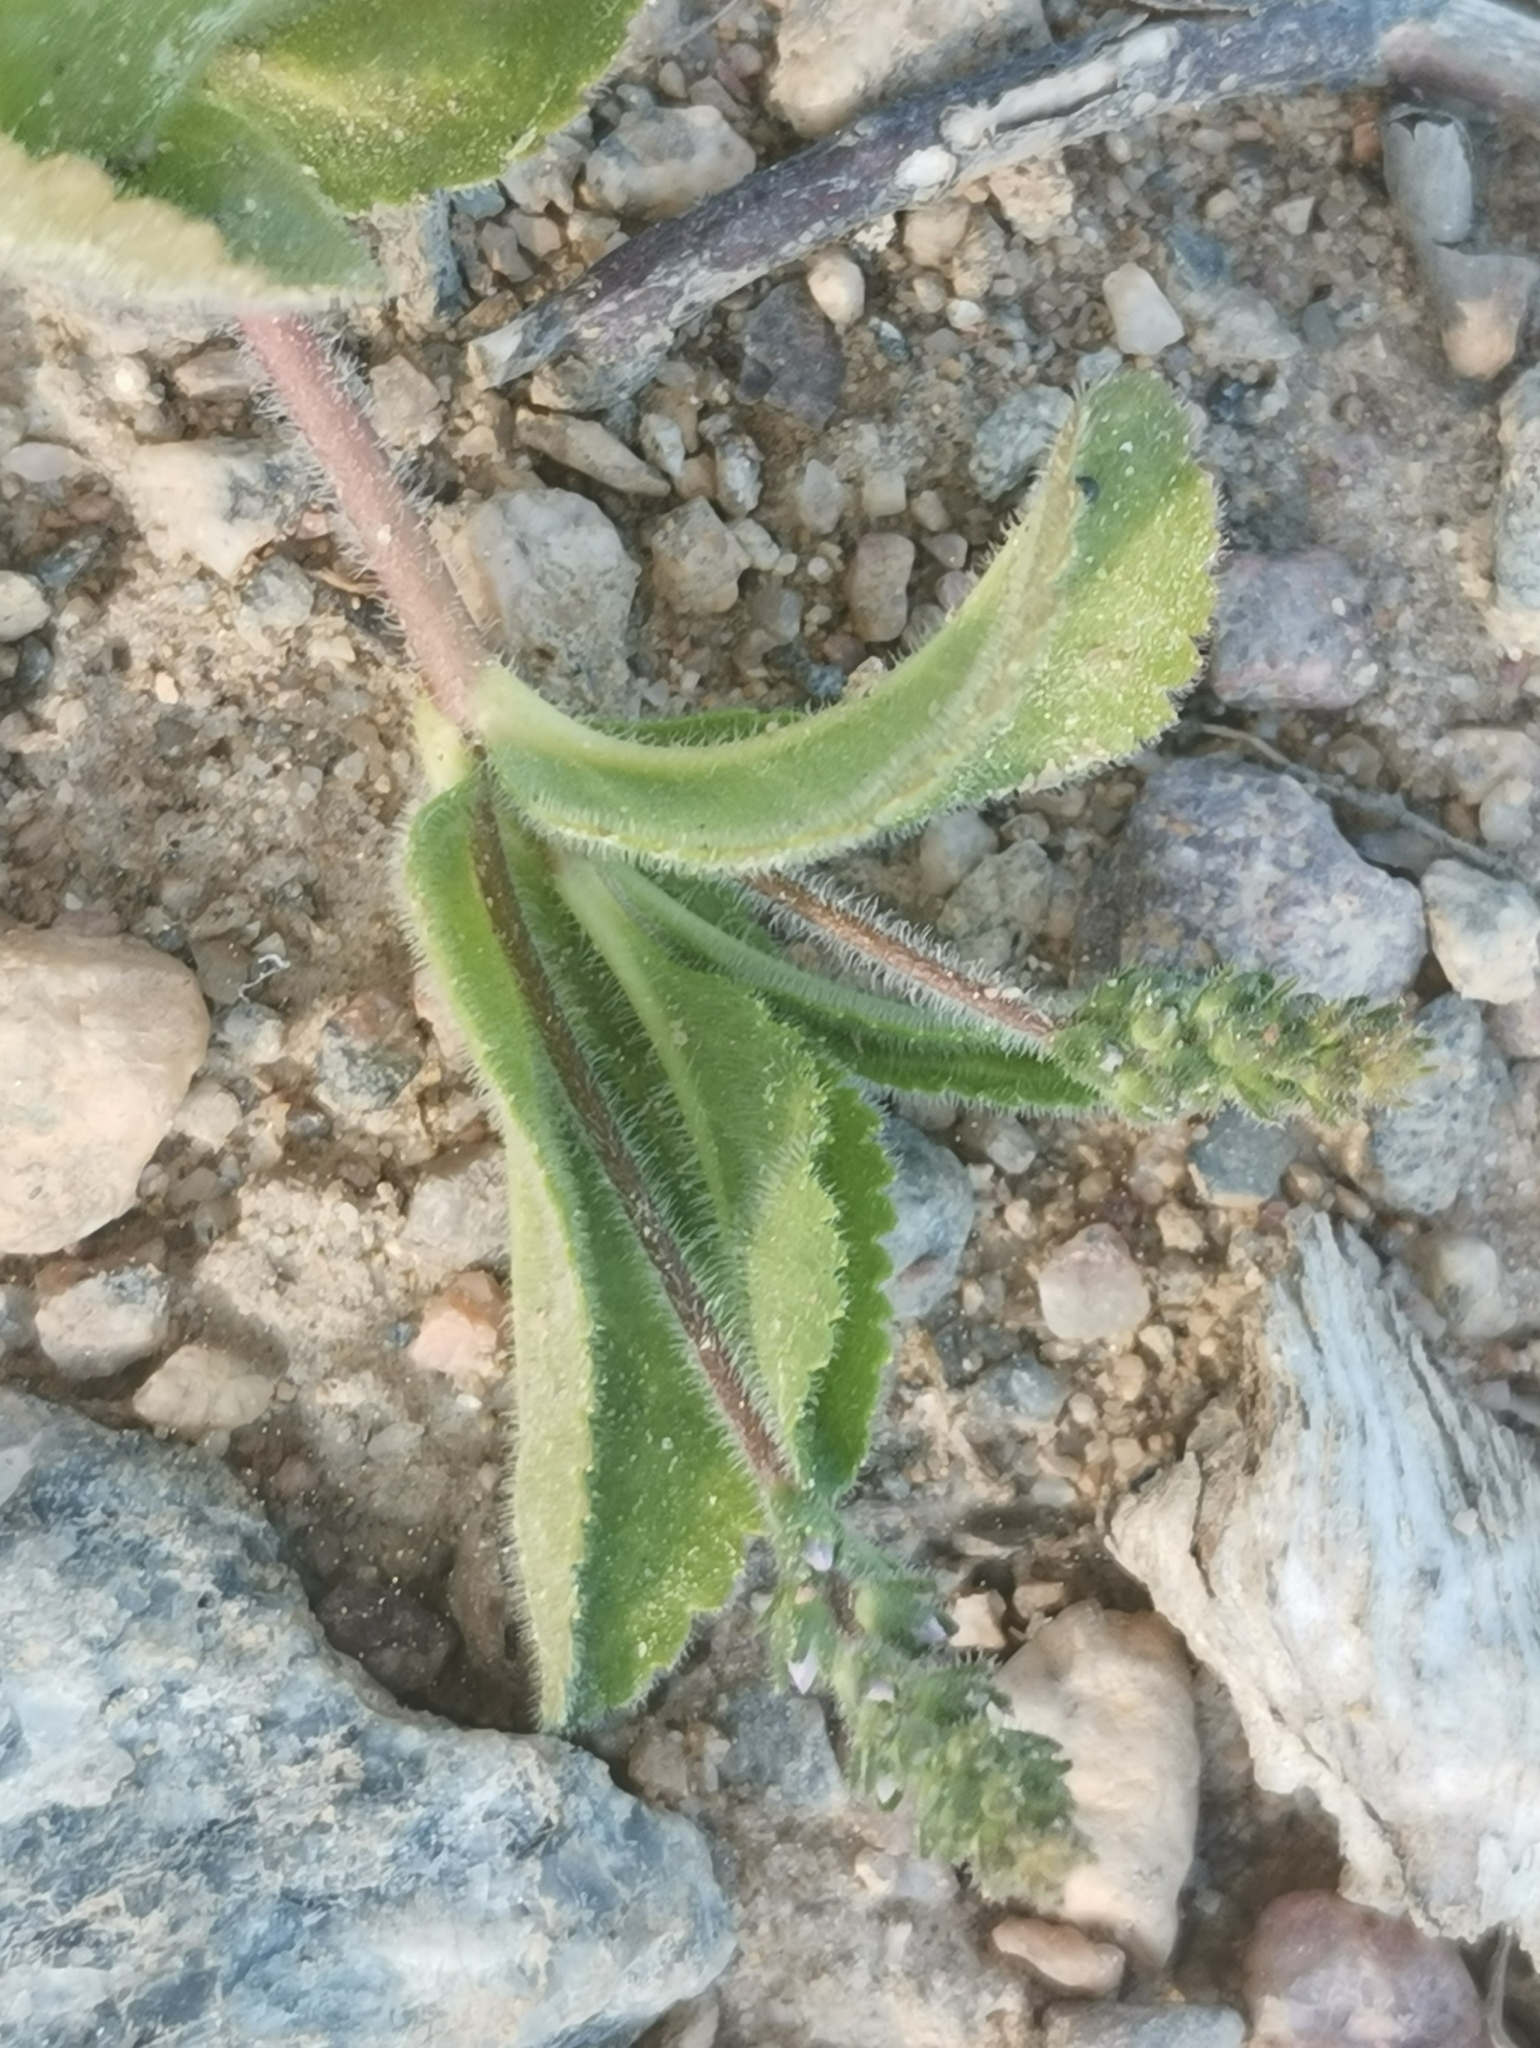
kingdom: Plantae
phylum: Tracheophyta
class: Magnoliopsida
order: Lamiales
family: Plantaginaceae
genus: Veronica
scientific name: Veronica officinalis
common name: Common speedwell
